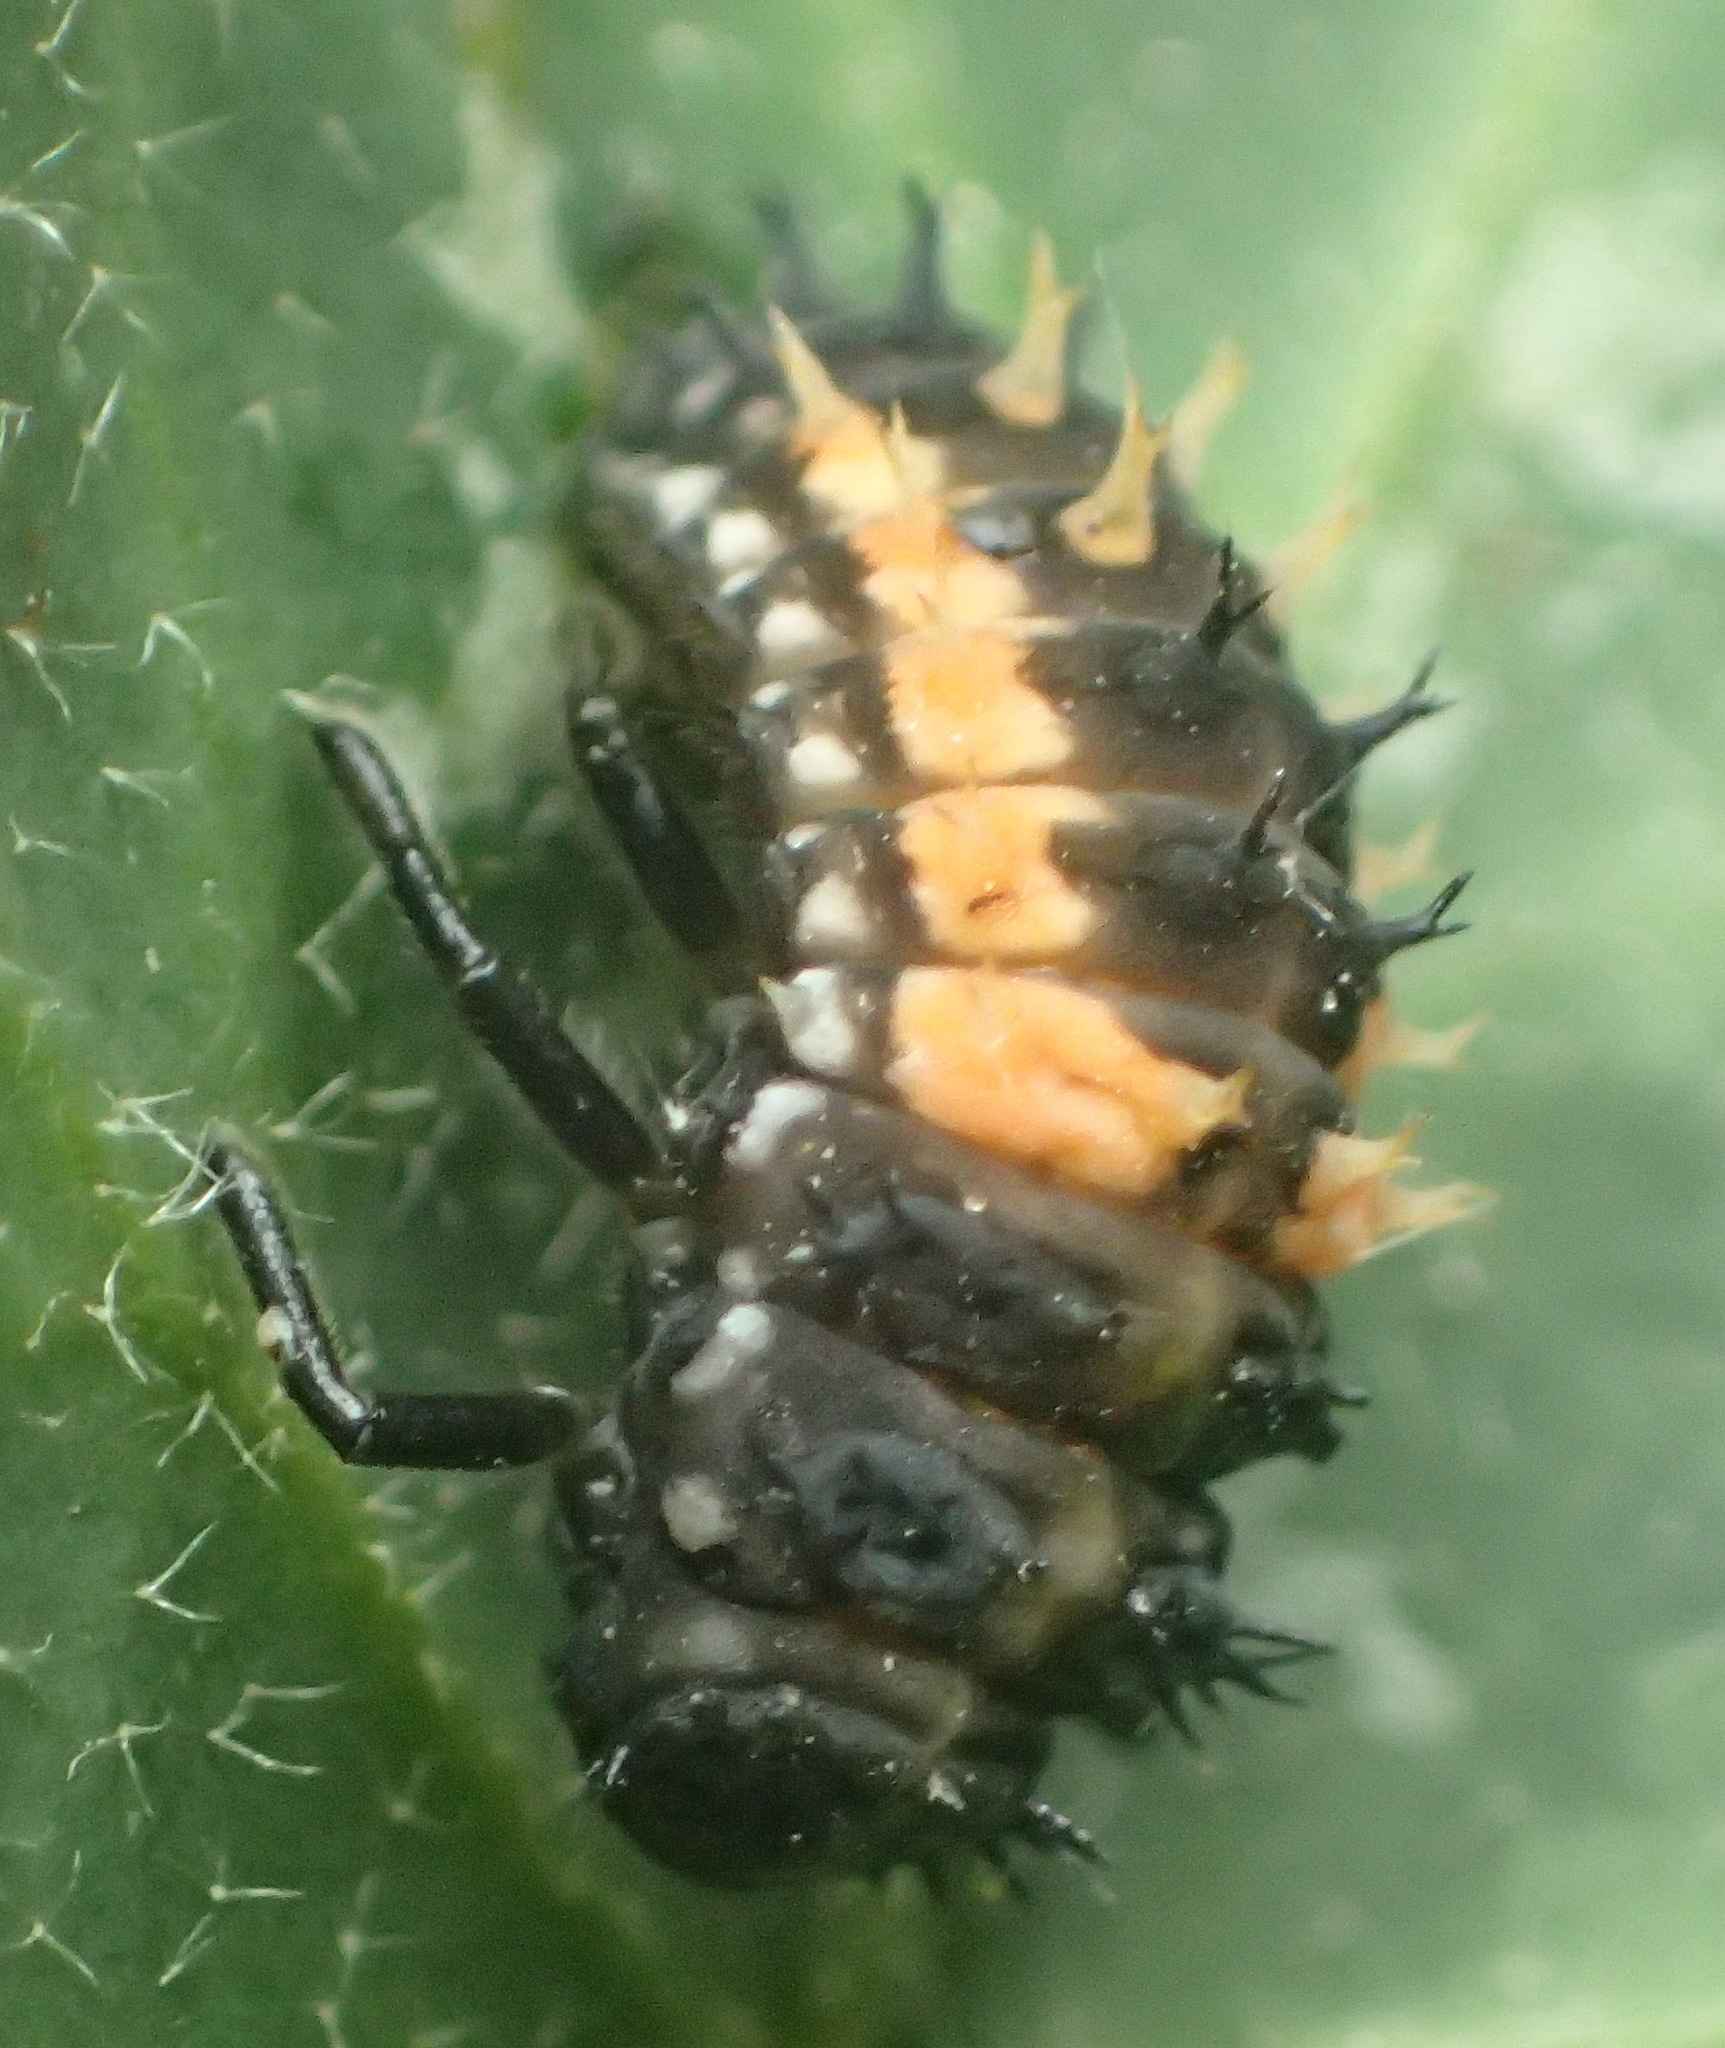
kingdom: Animalia
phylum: Arthropoda
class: Insecta
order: Coleoptera
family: Coccinellidae
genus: Harmonia
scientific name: Harmonia axyridis
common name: Harlequin ladybird
